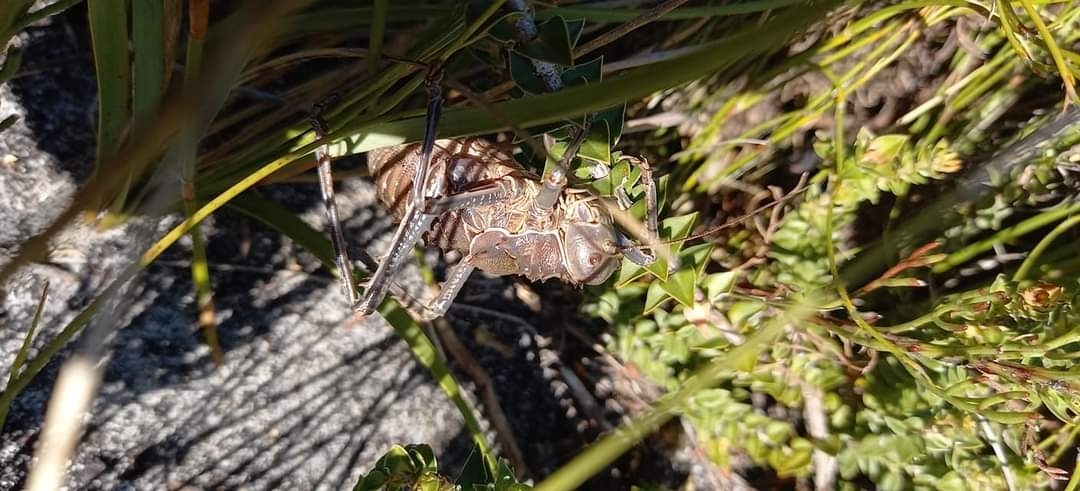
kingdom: Animalia
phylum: Arthropoda
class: Insecta
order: Orthoptera
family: Tettigoniidae
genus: Hetrodes
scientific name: Hetrodes pupus
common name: Koringkriek
